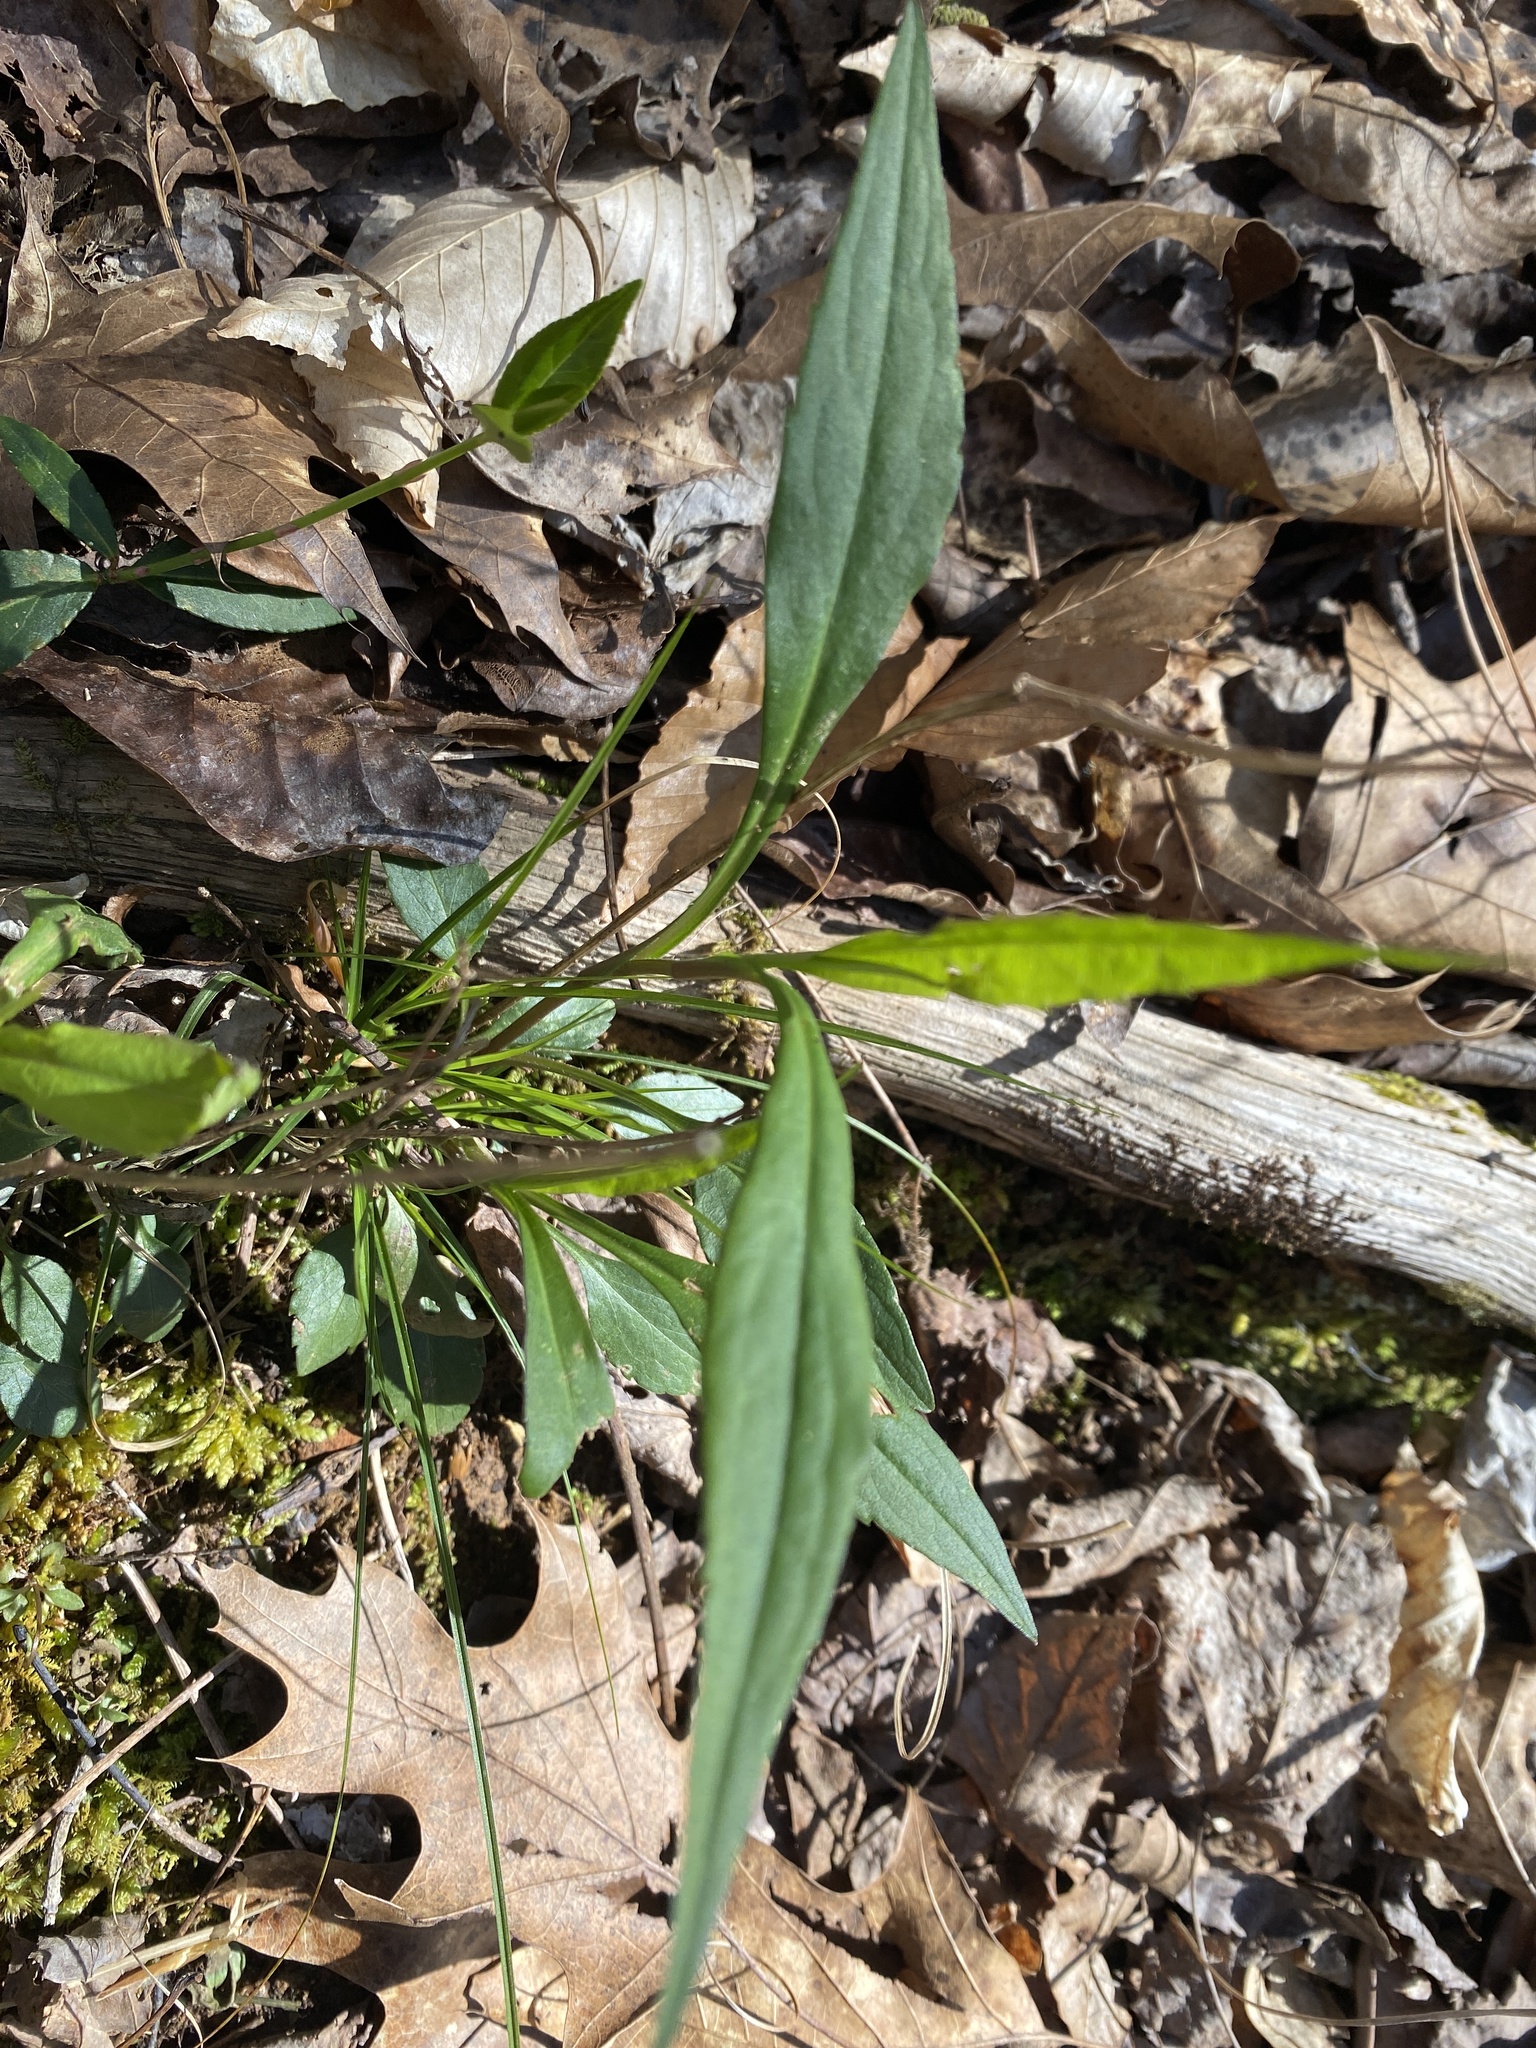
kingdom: Plantae
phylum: Tracheophyta
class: Magnoliopsida
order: Asterales
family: Asteraceae
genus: Solidago
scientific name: Solidago caesia
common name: Woodland goldenrod
